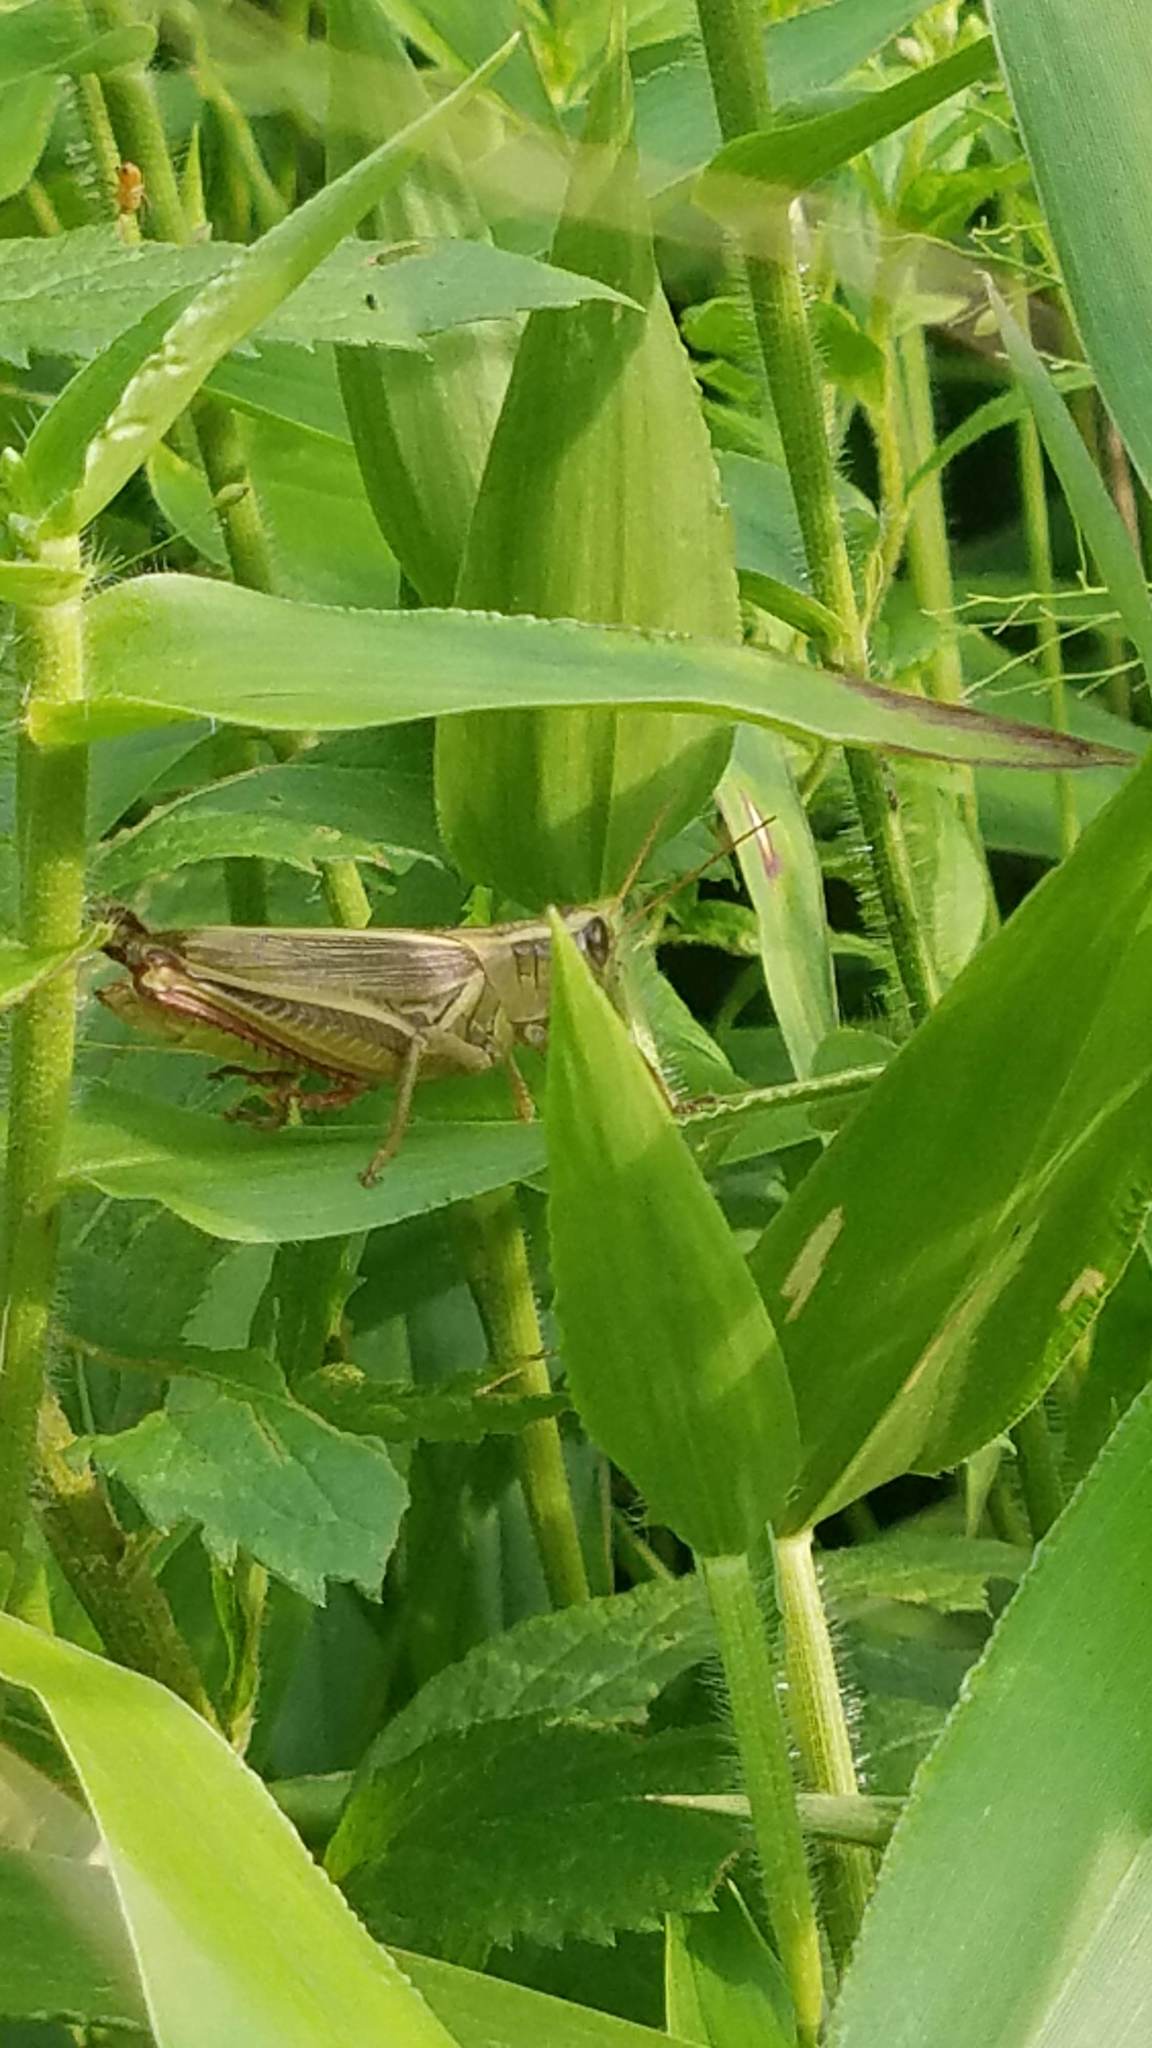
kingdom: Animalia
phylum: Arthropoda
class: Insecta
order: Orthoptera
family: Acrididae
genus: Melanoplus
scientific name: Melanoplus bivittatus
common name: Two-striped grasshopper
